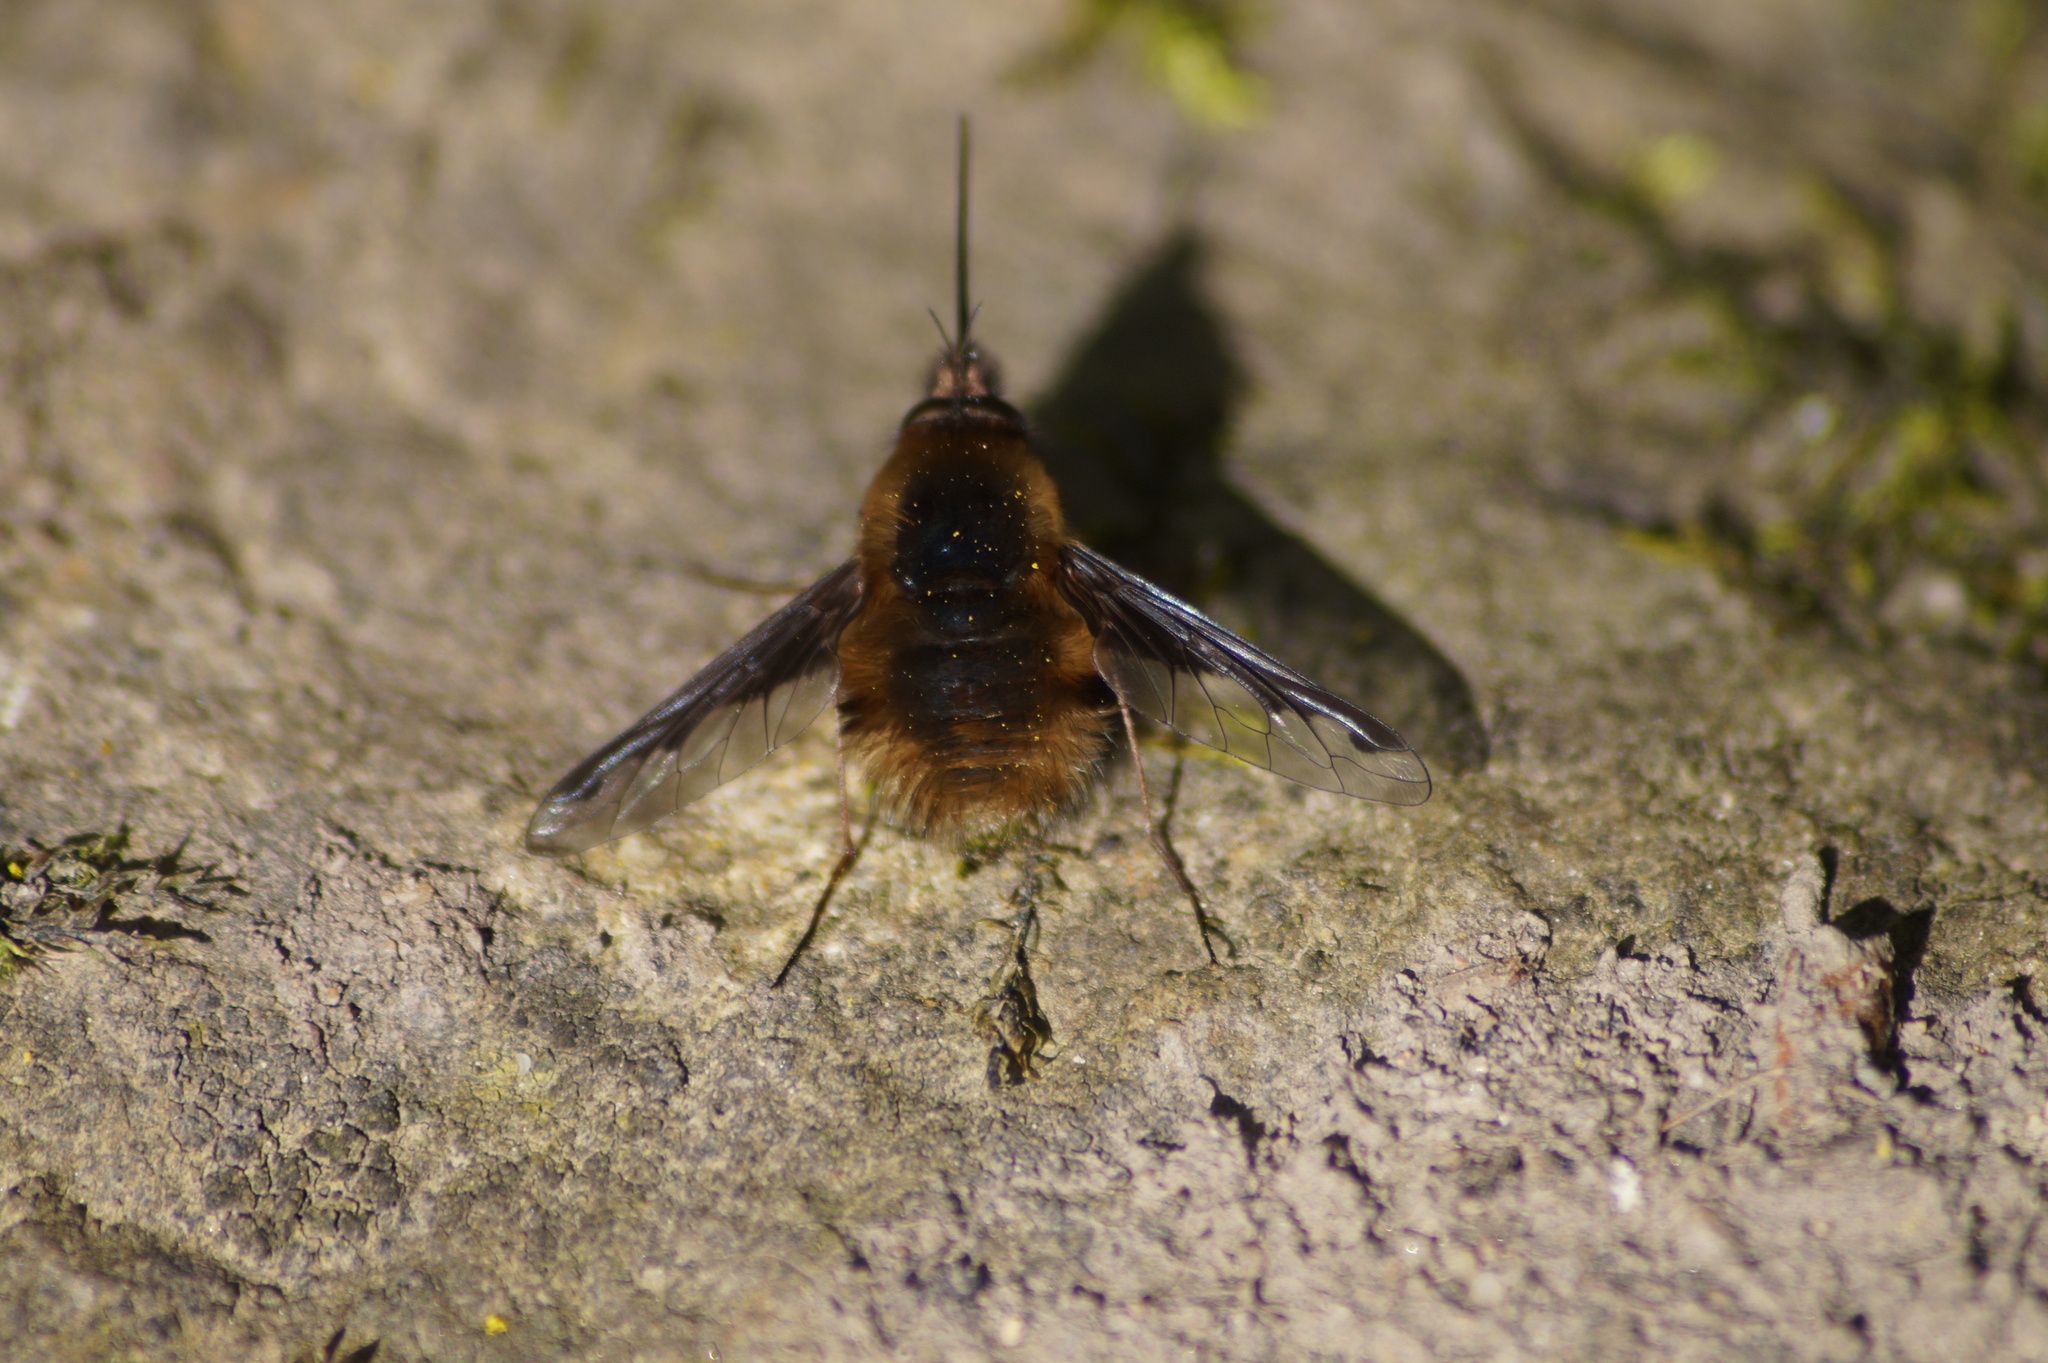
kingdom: Animalia
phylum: Arthropoda
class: Insecta
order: Diptera
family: Bombyliidae
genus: Bombylius
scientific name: Bombylius major
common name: Bee fly
